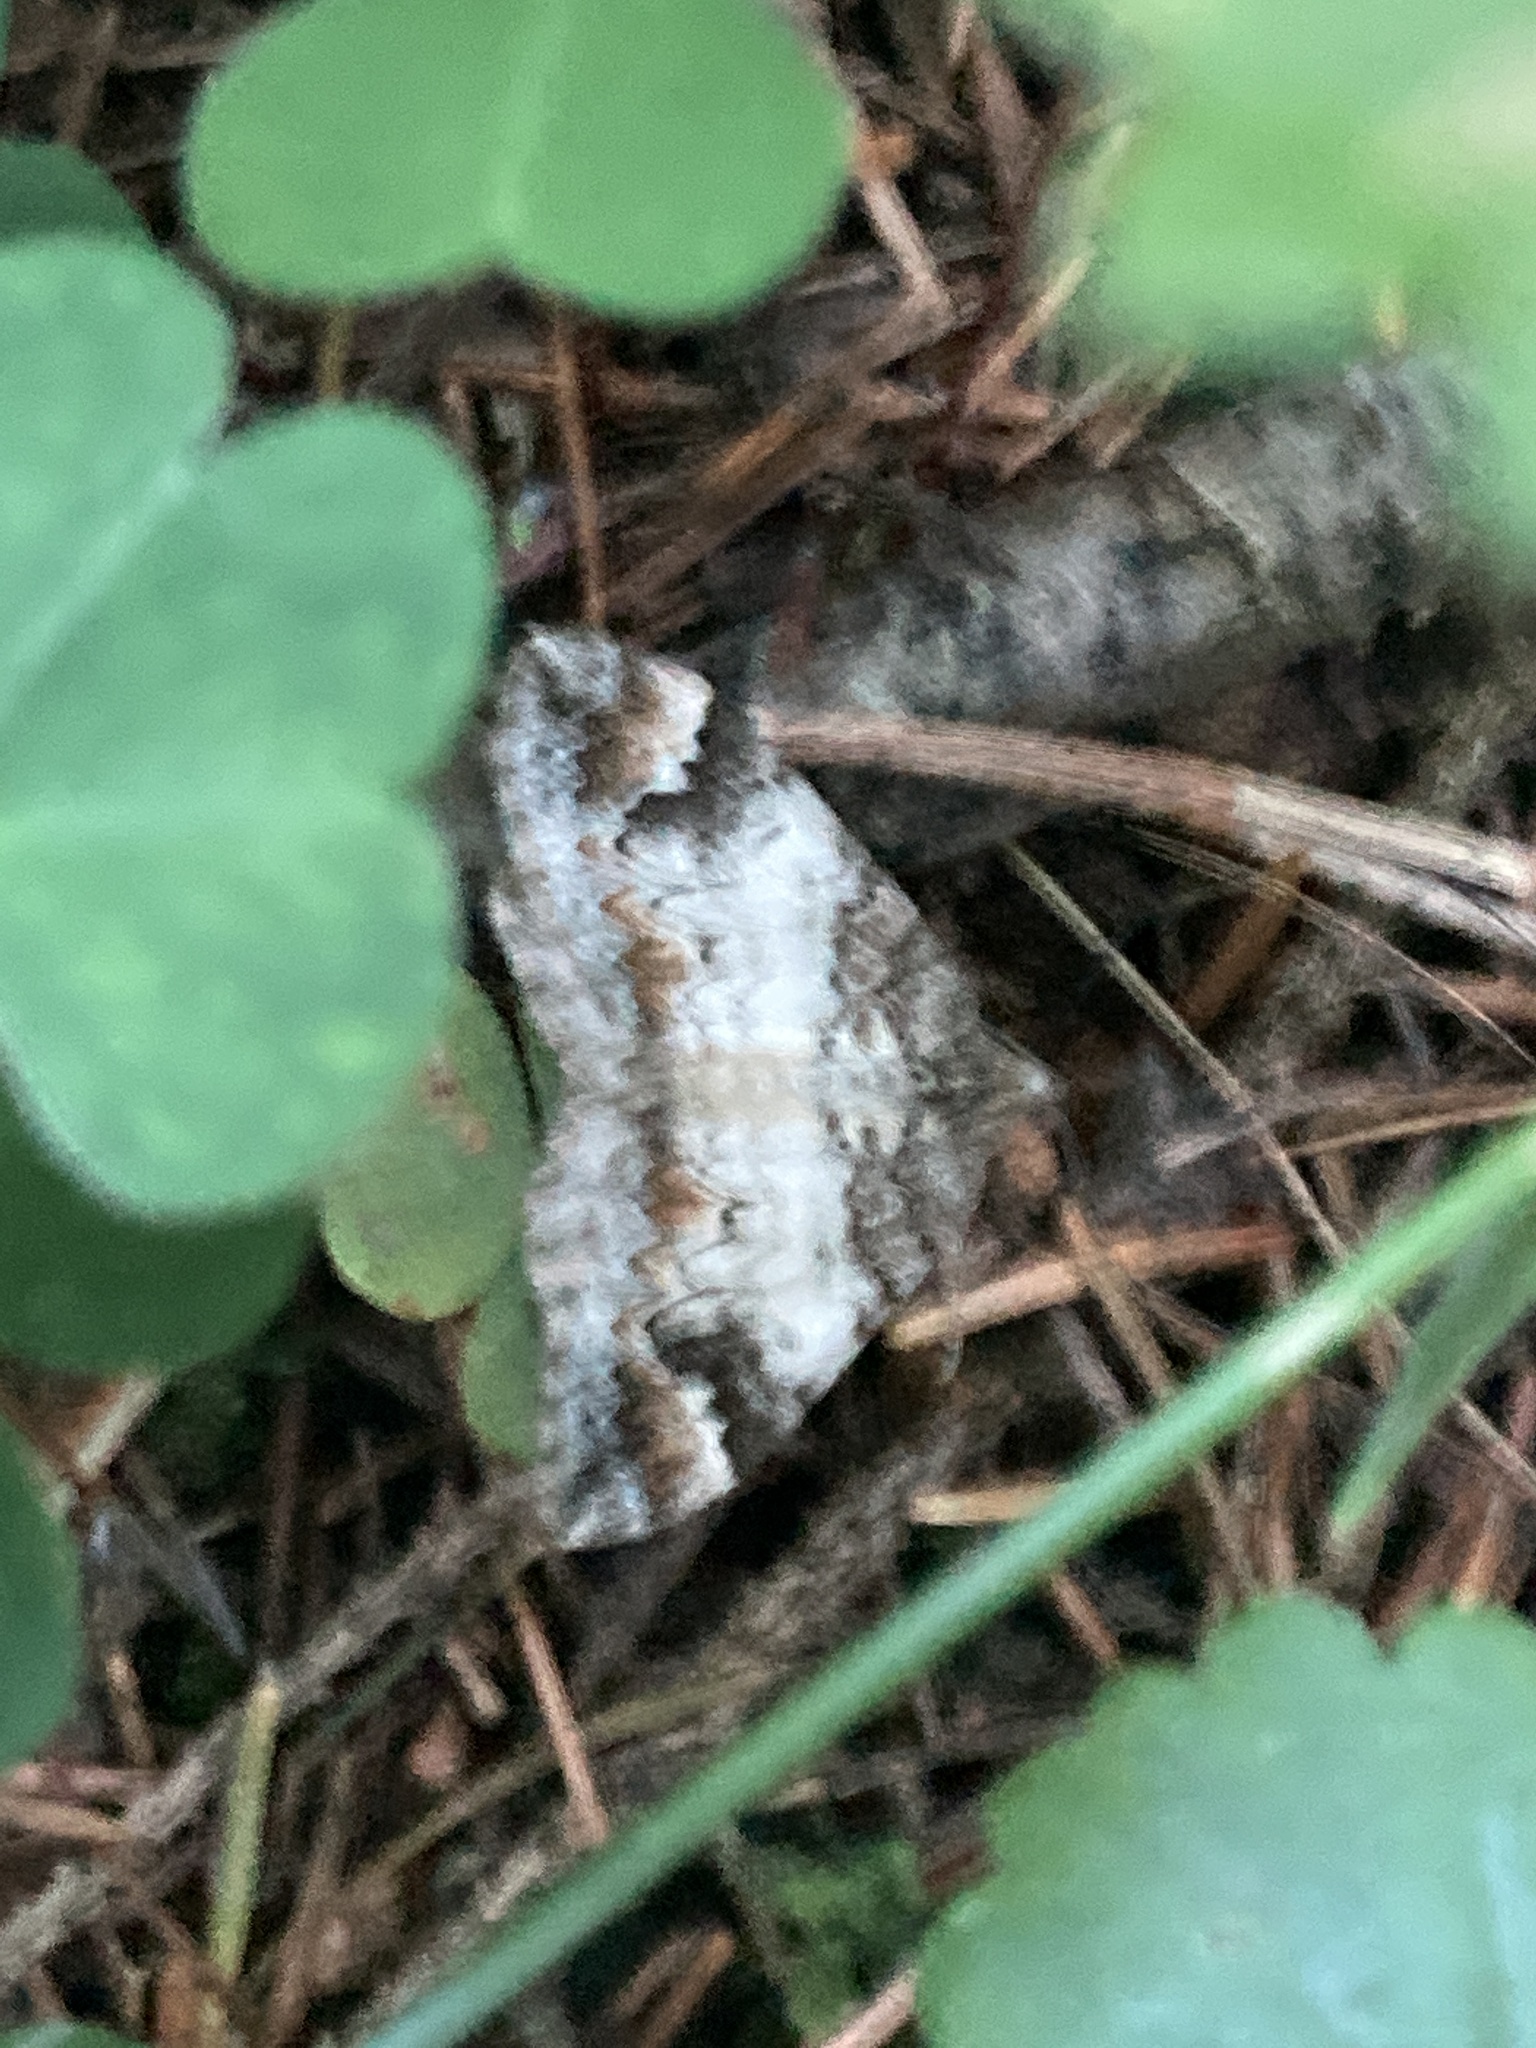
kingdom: Animalia
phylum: Arthropoda
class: Insecta
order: Lepidoptera
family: Geometridae
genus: Dysstroma
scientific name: Dysstroma truncata
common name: Common marbled carpet
